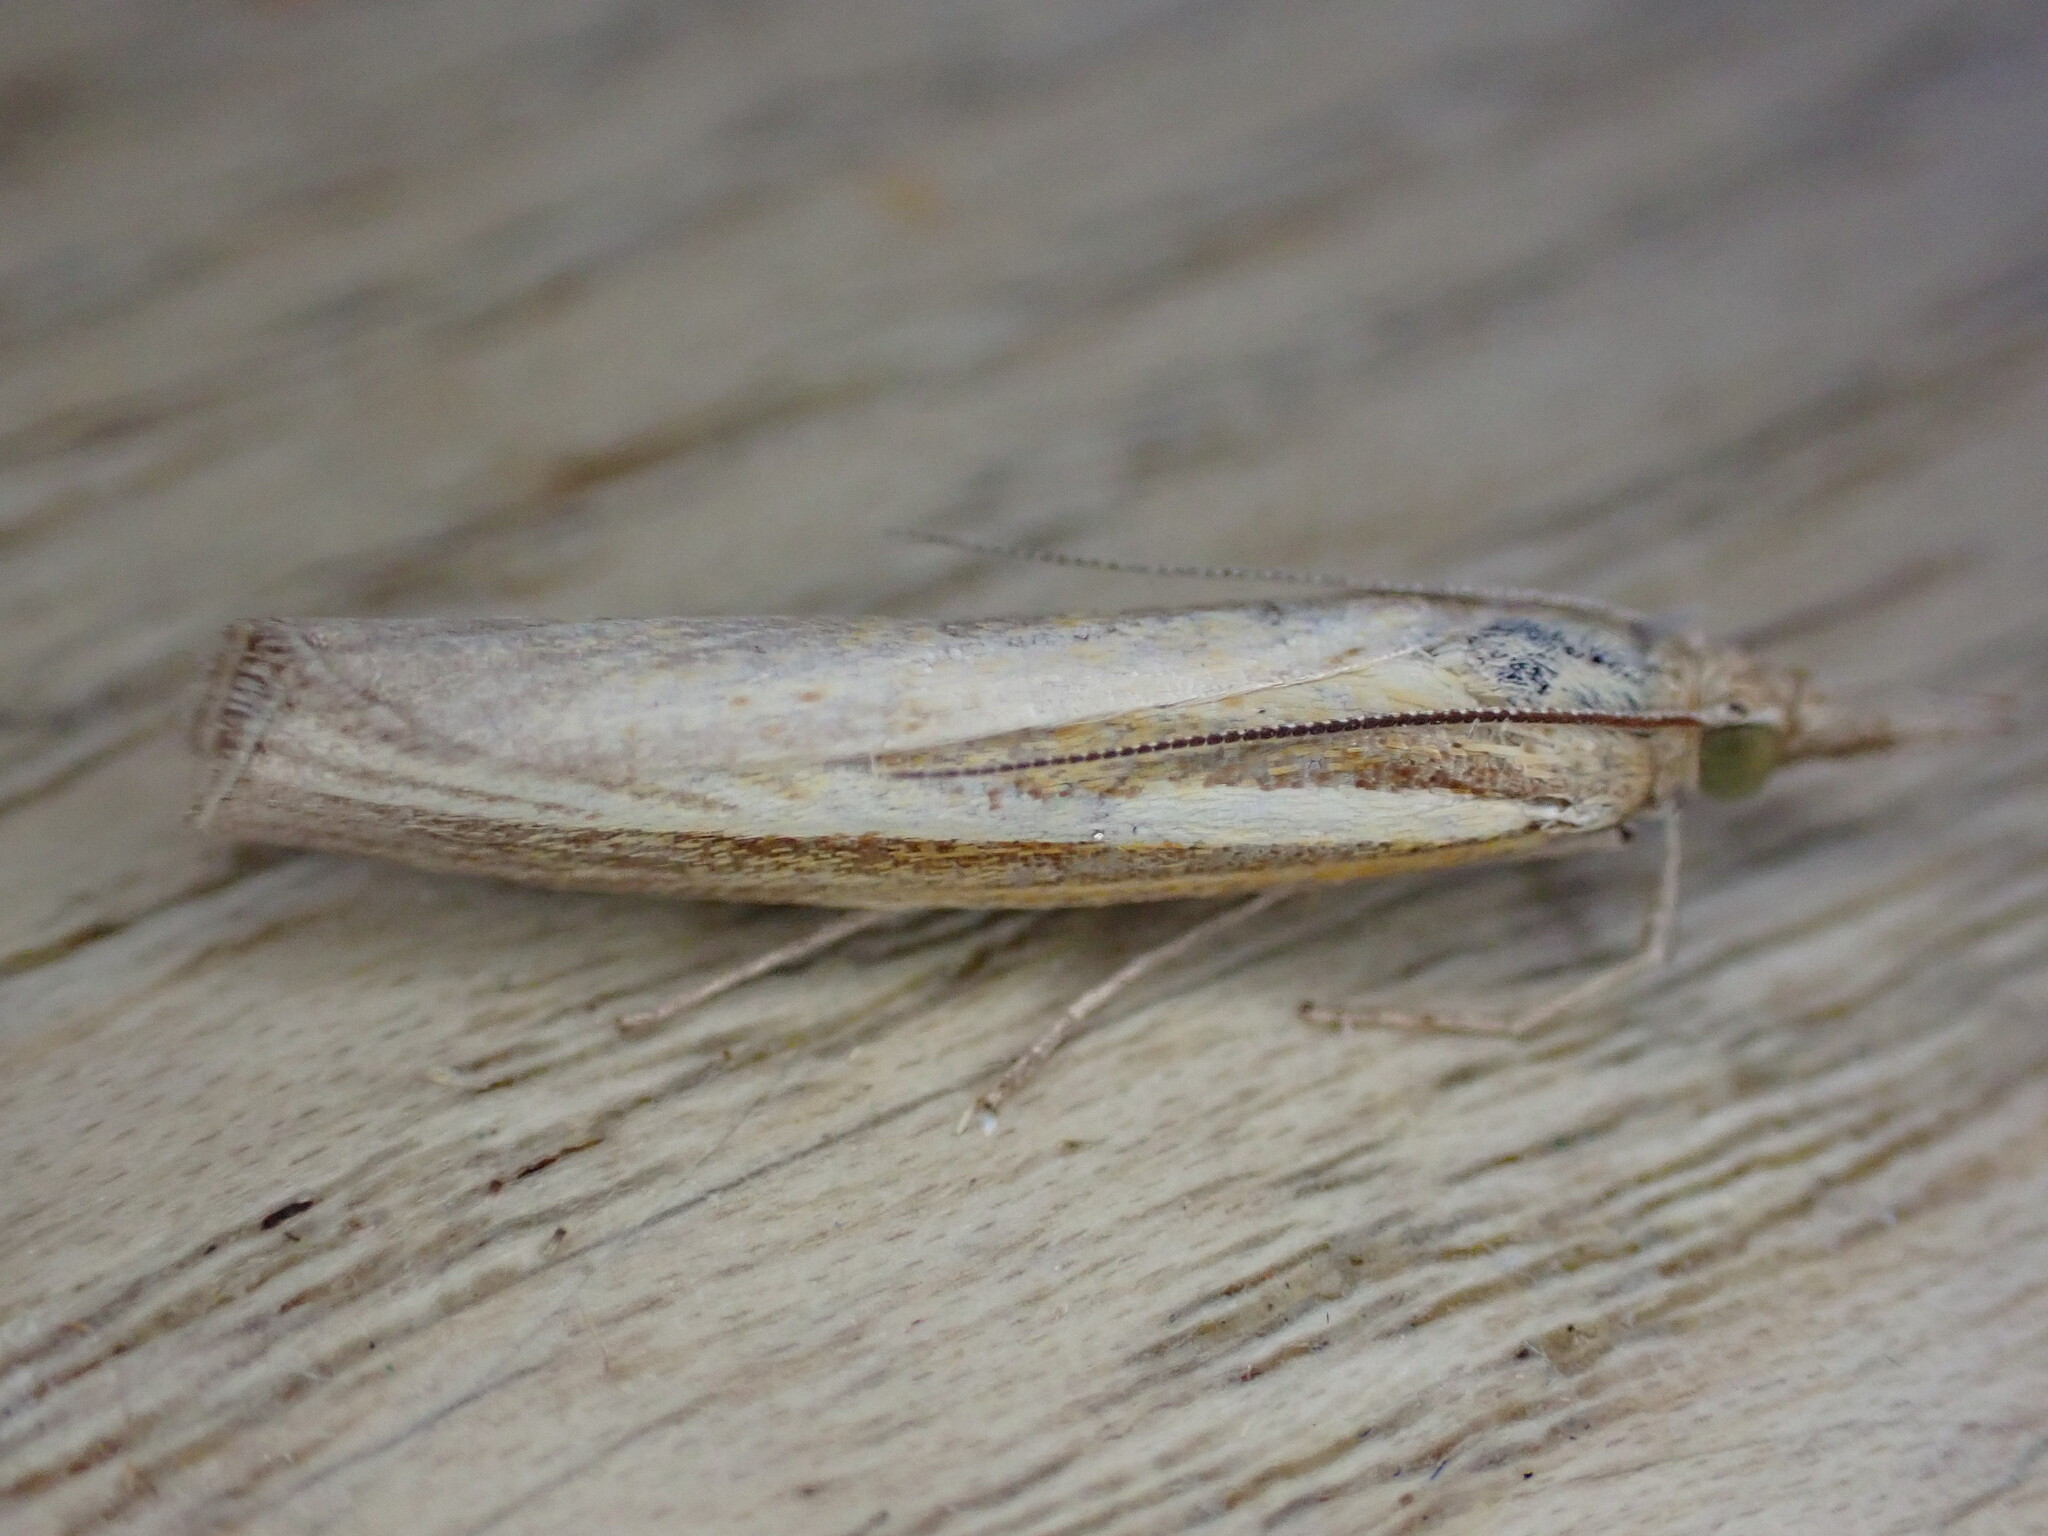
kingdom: Animalia
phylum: Arthropoda
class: Insecta
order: Lepidoptera
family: Crambidae
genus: Agriphila
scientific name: Agriphila tristellus
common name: Common grass-veneer
